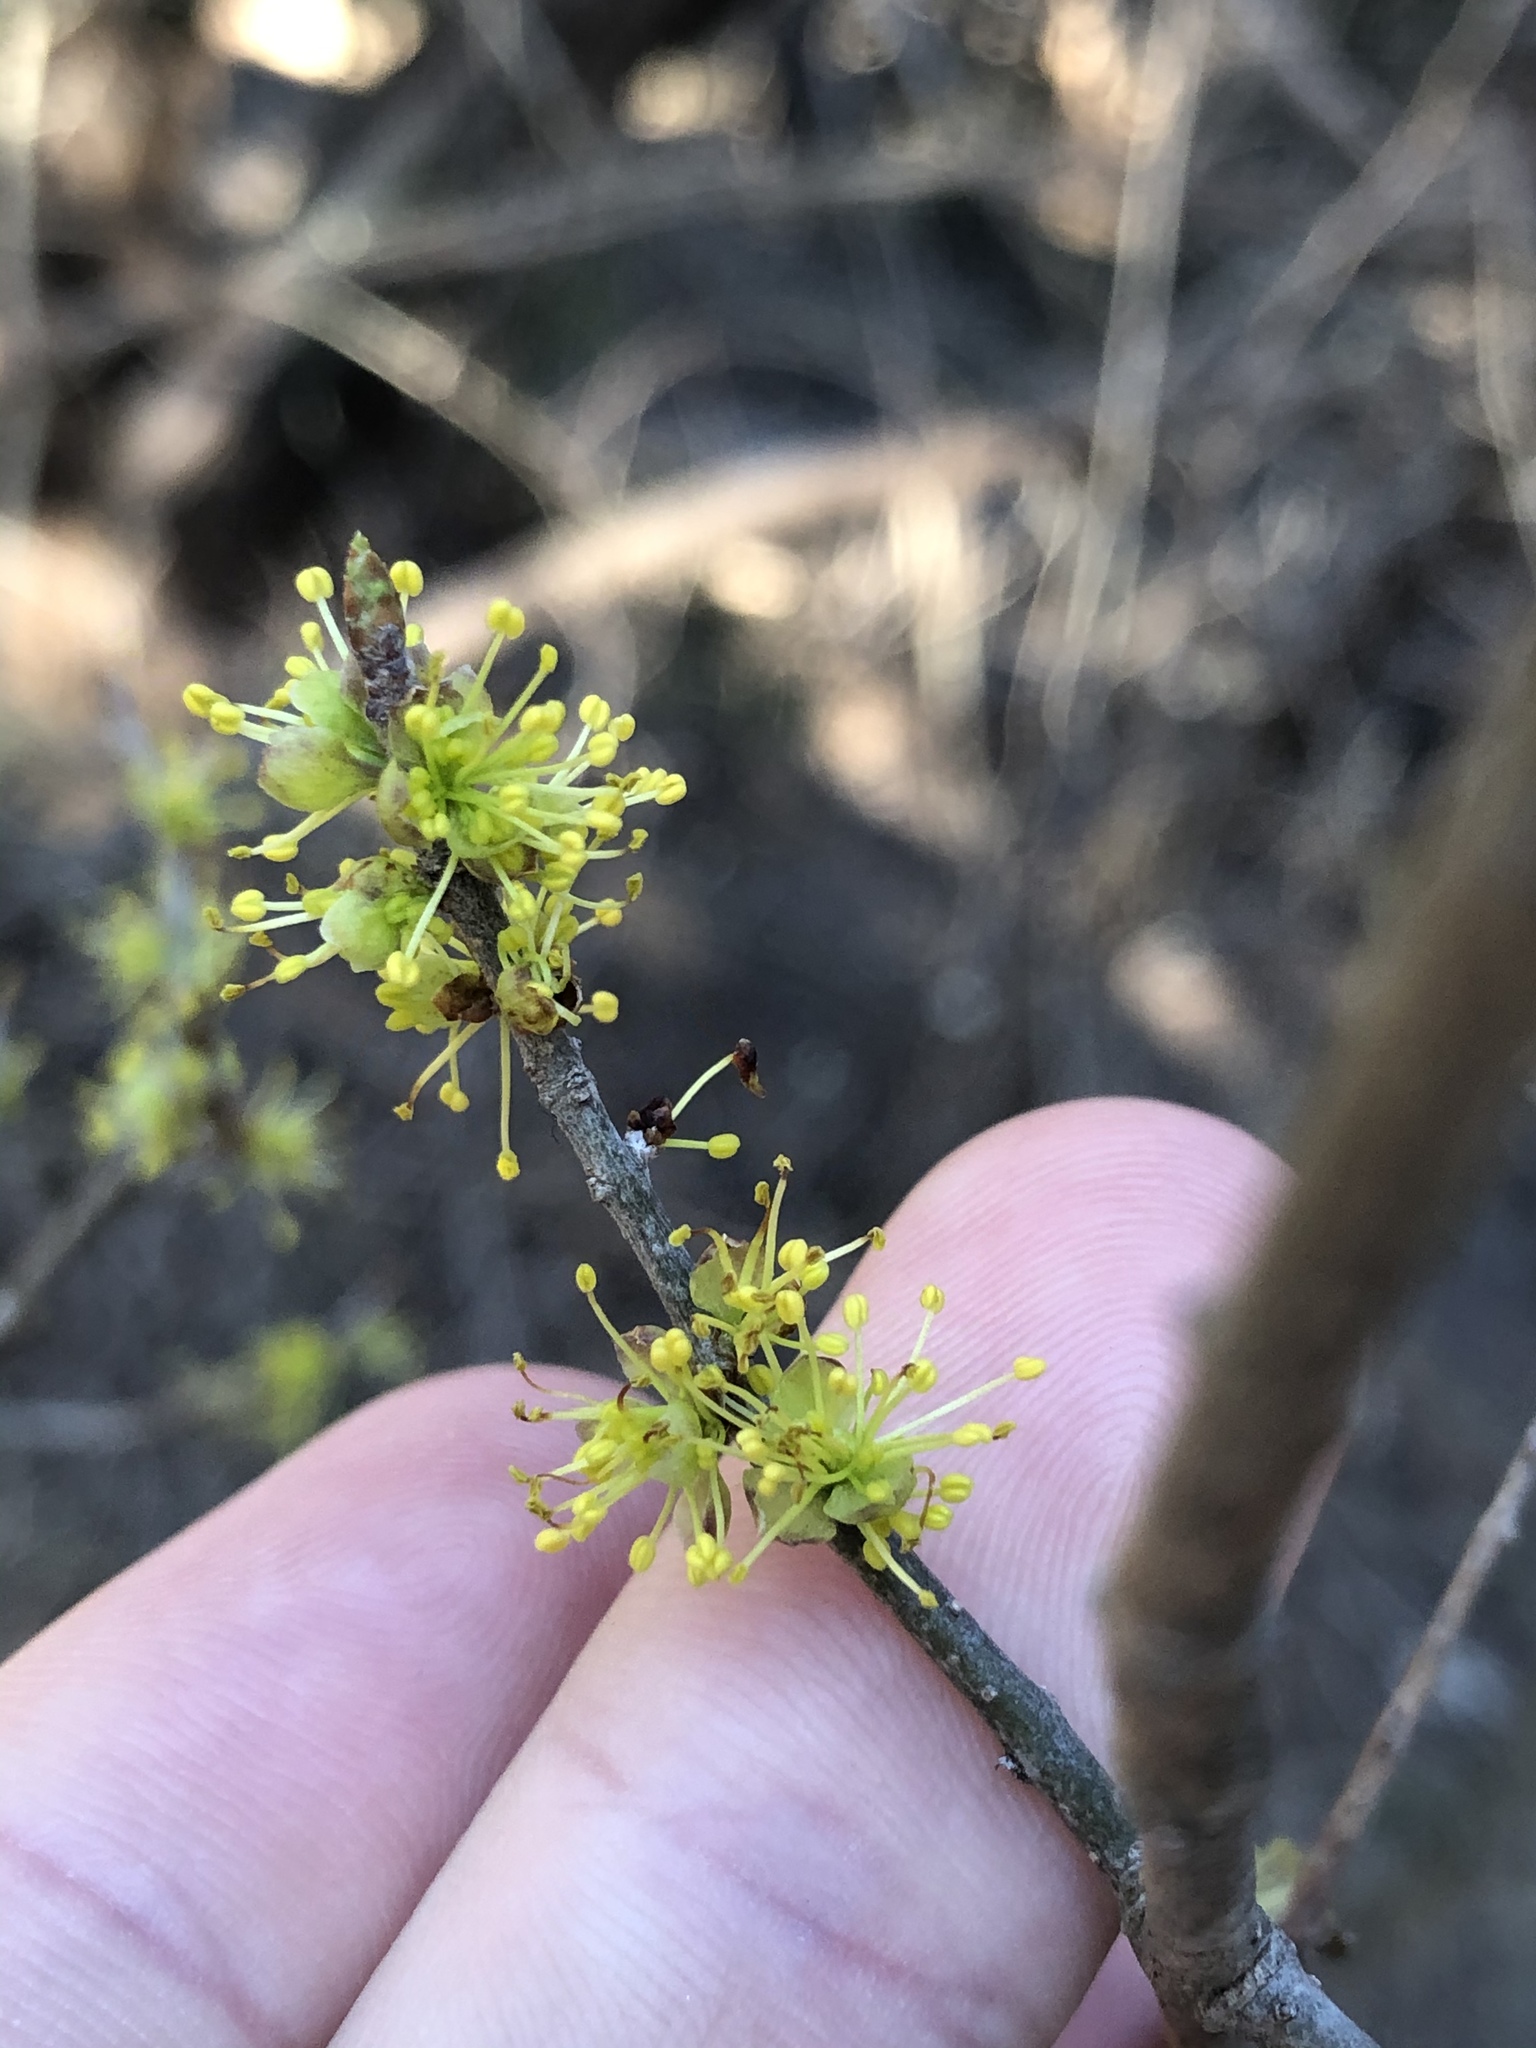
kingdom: Plantae
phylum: Tracheophyta
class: Magnoliopsida
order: Lamiales
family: Oleaceae
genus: Forestiera
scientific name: Forestiera pubescens
